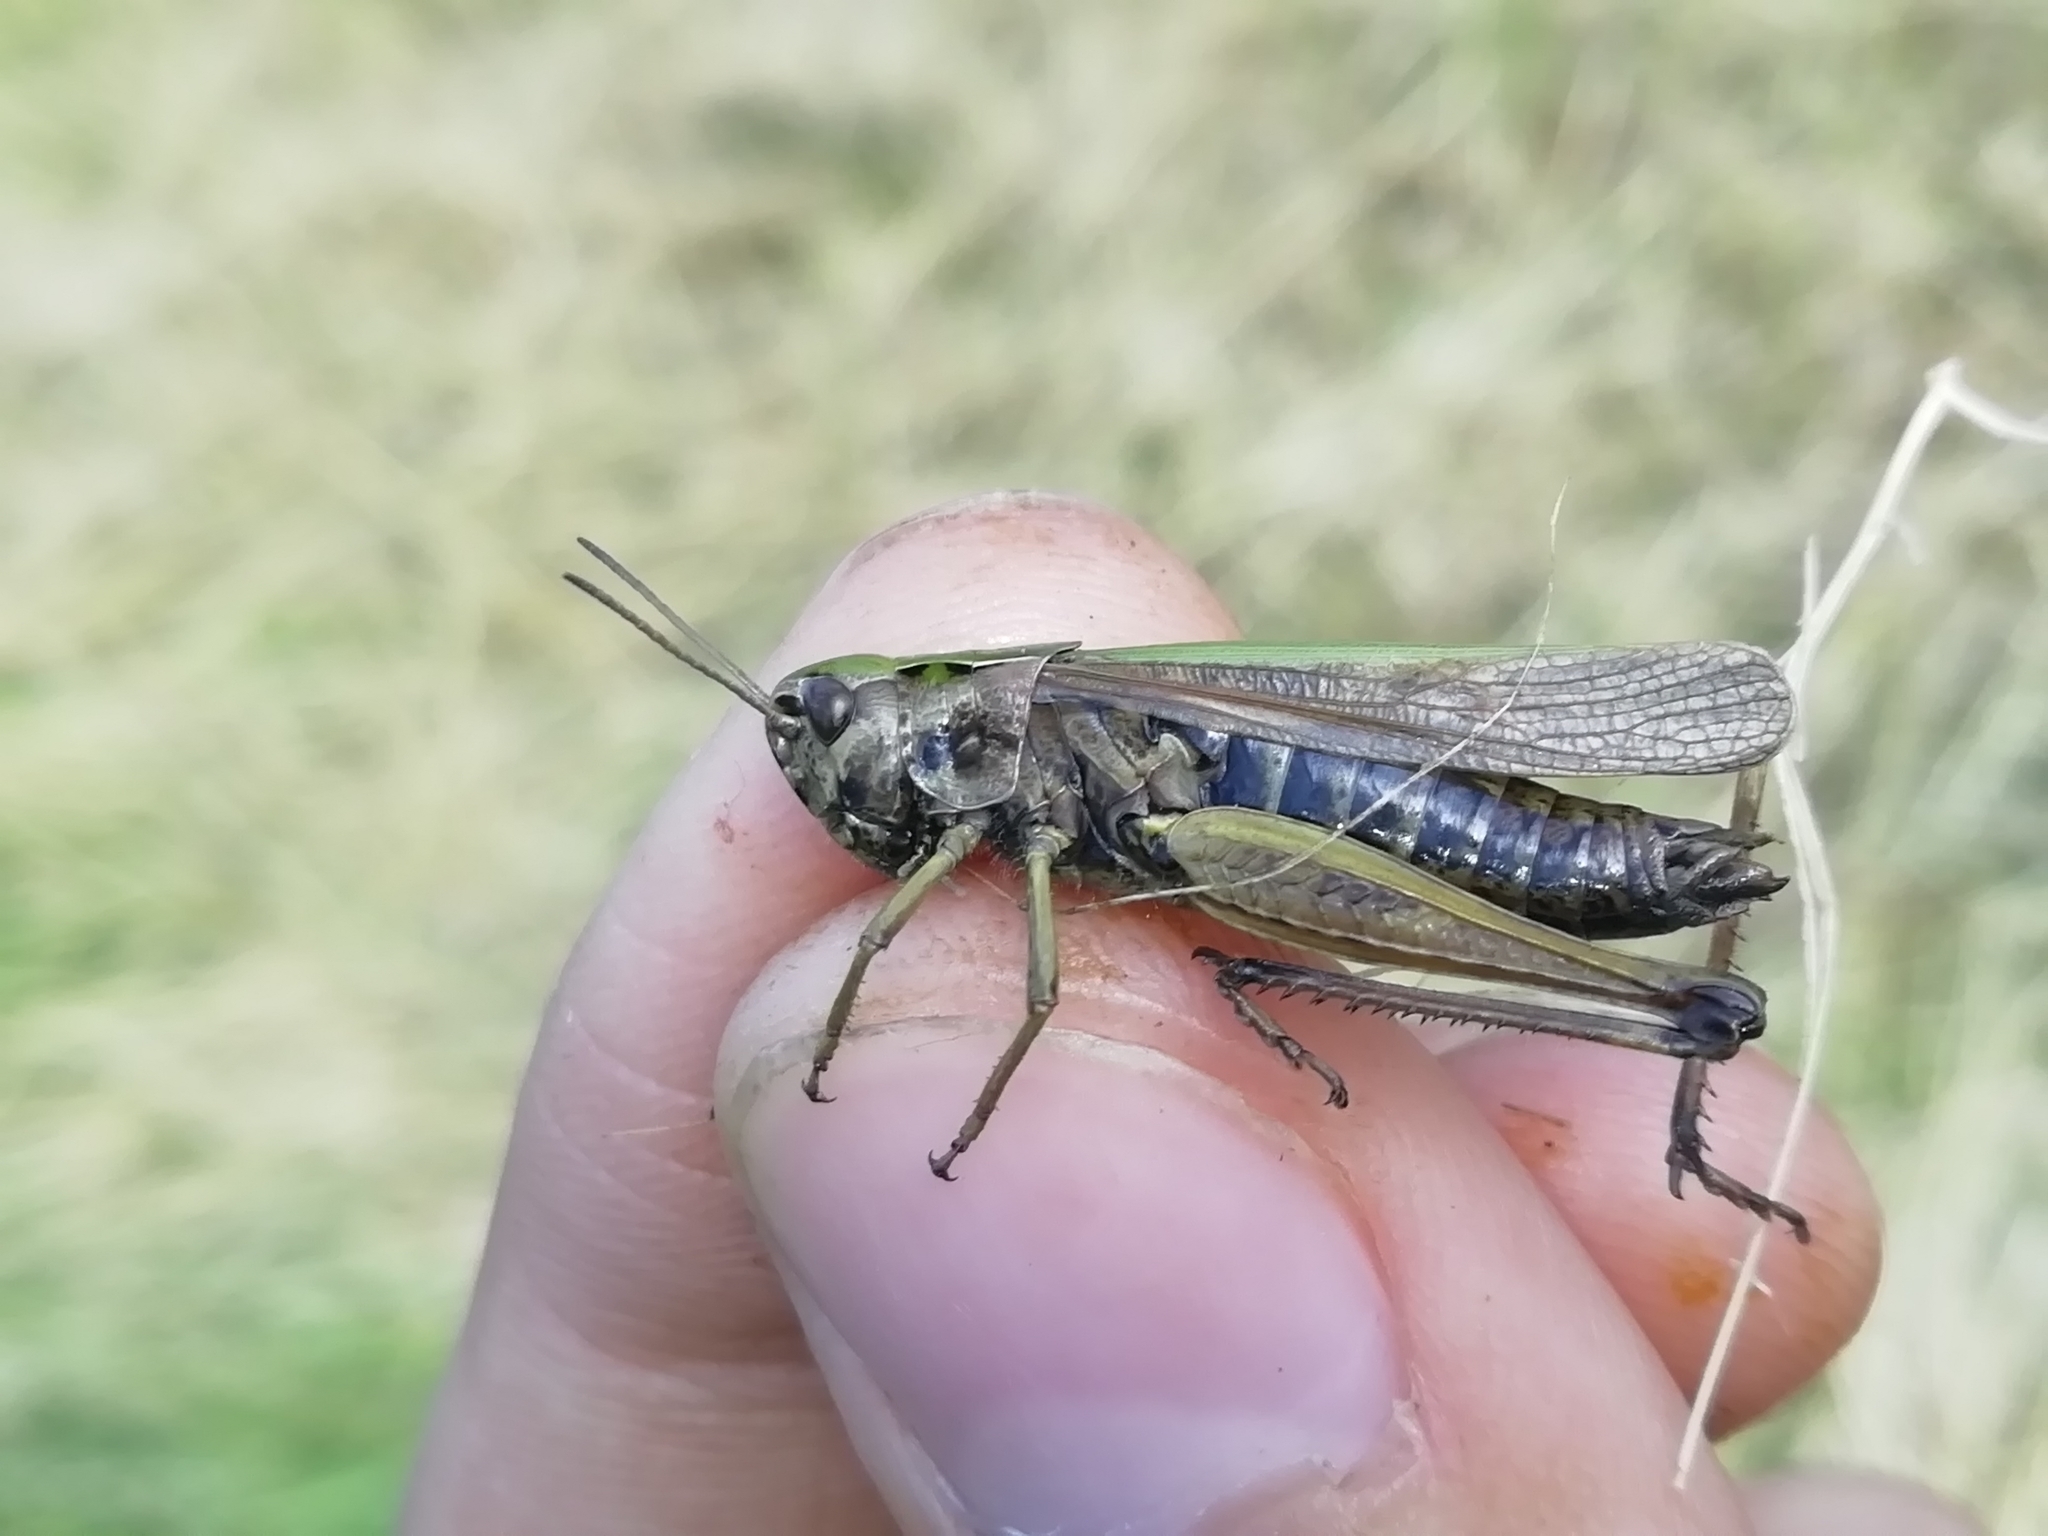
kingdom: Animalia
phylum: Arthropoda
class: Insecta
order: Orthoptera
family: Acrididae
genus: Omocestus
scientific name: Omocestus viridulus
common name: Common green grasshopper
